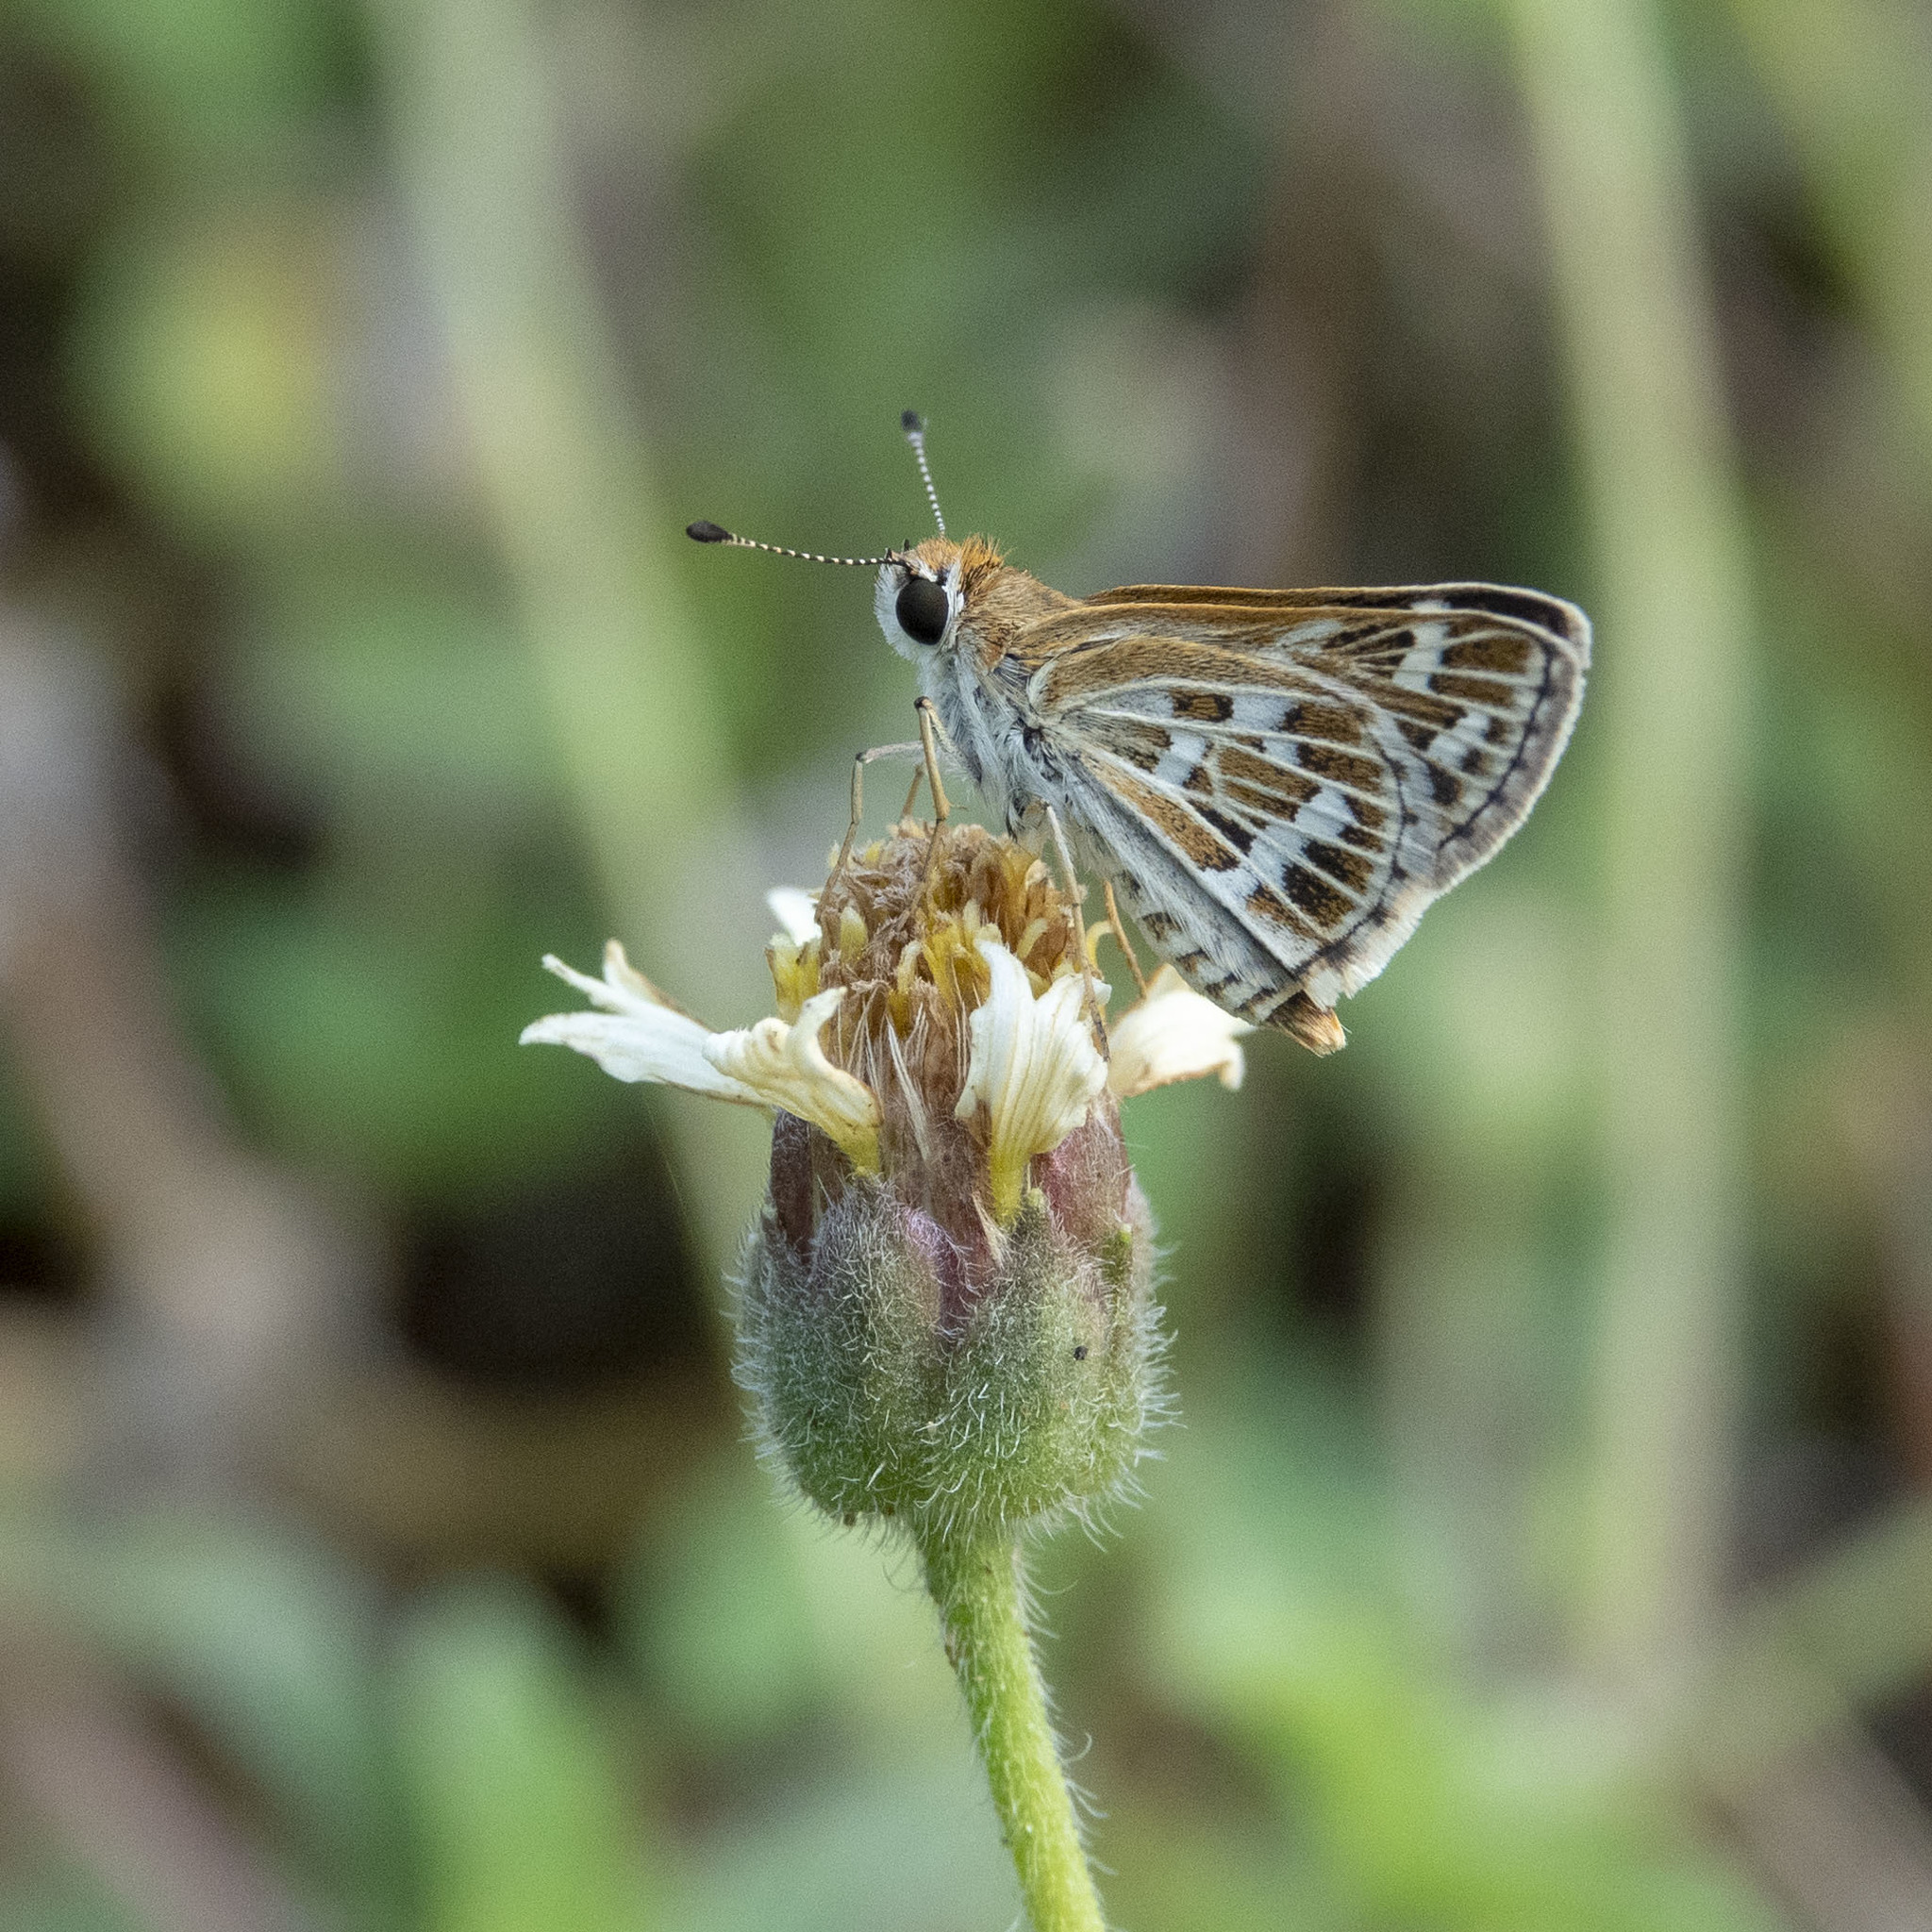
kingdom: Animalia
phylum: Arthropoda
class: Insecta
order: Lepidoptera
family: Hesperiidae
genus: Taractrocera
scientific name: Taractrocera maevius
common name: Common grass-dart
